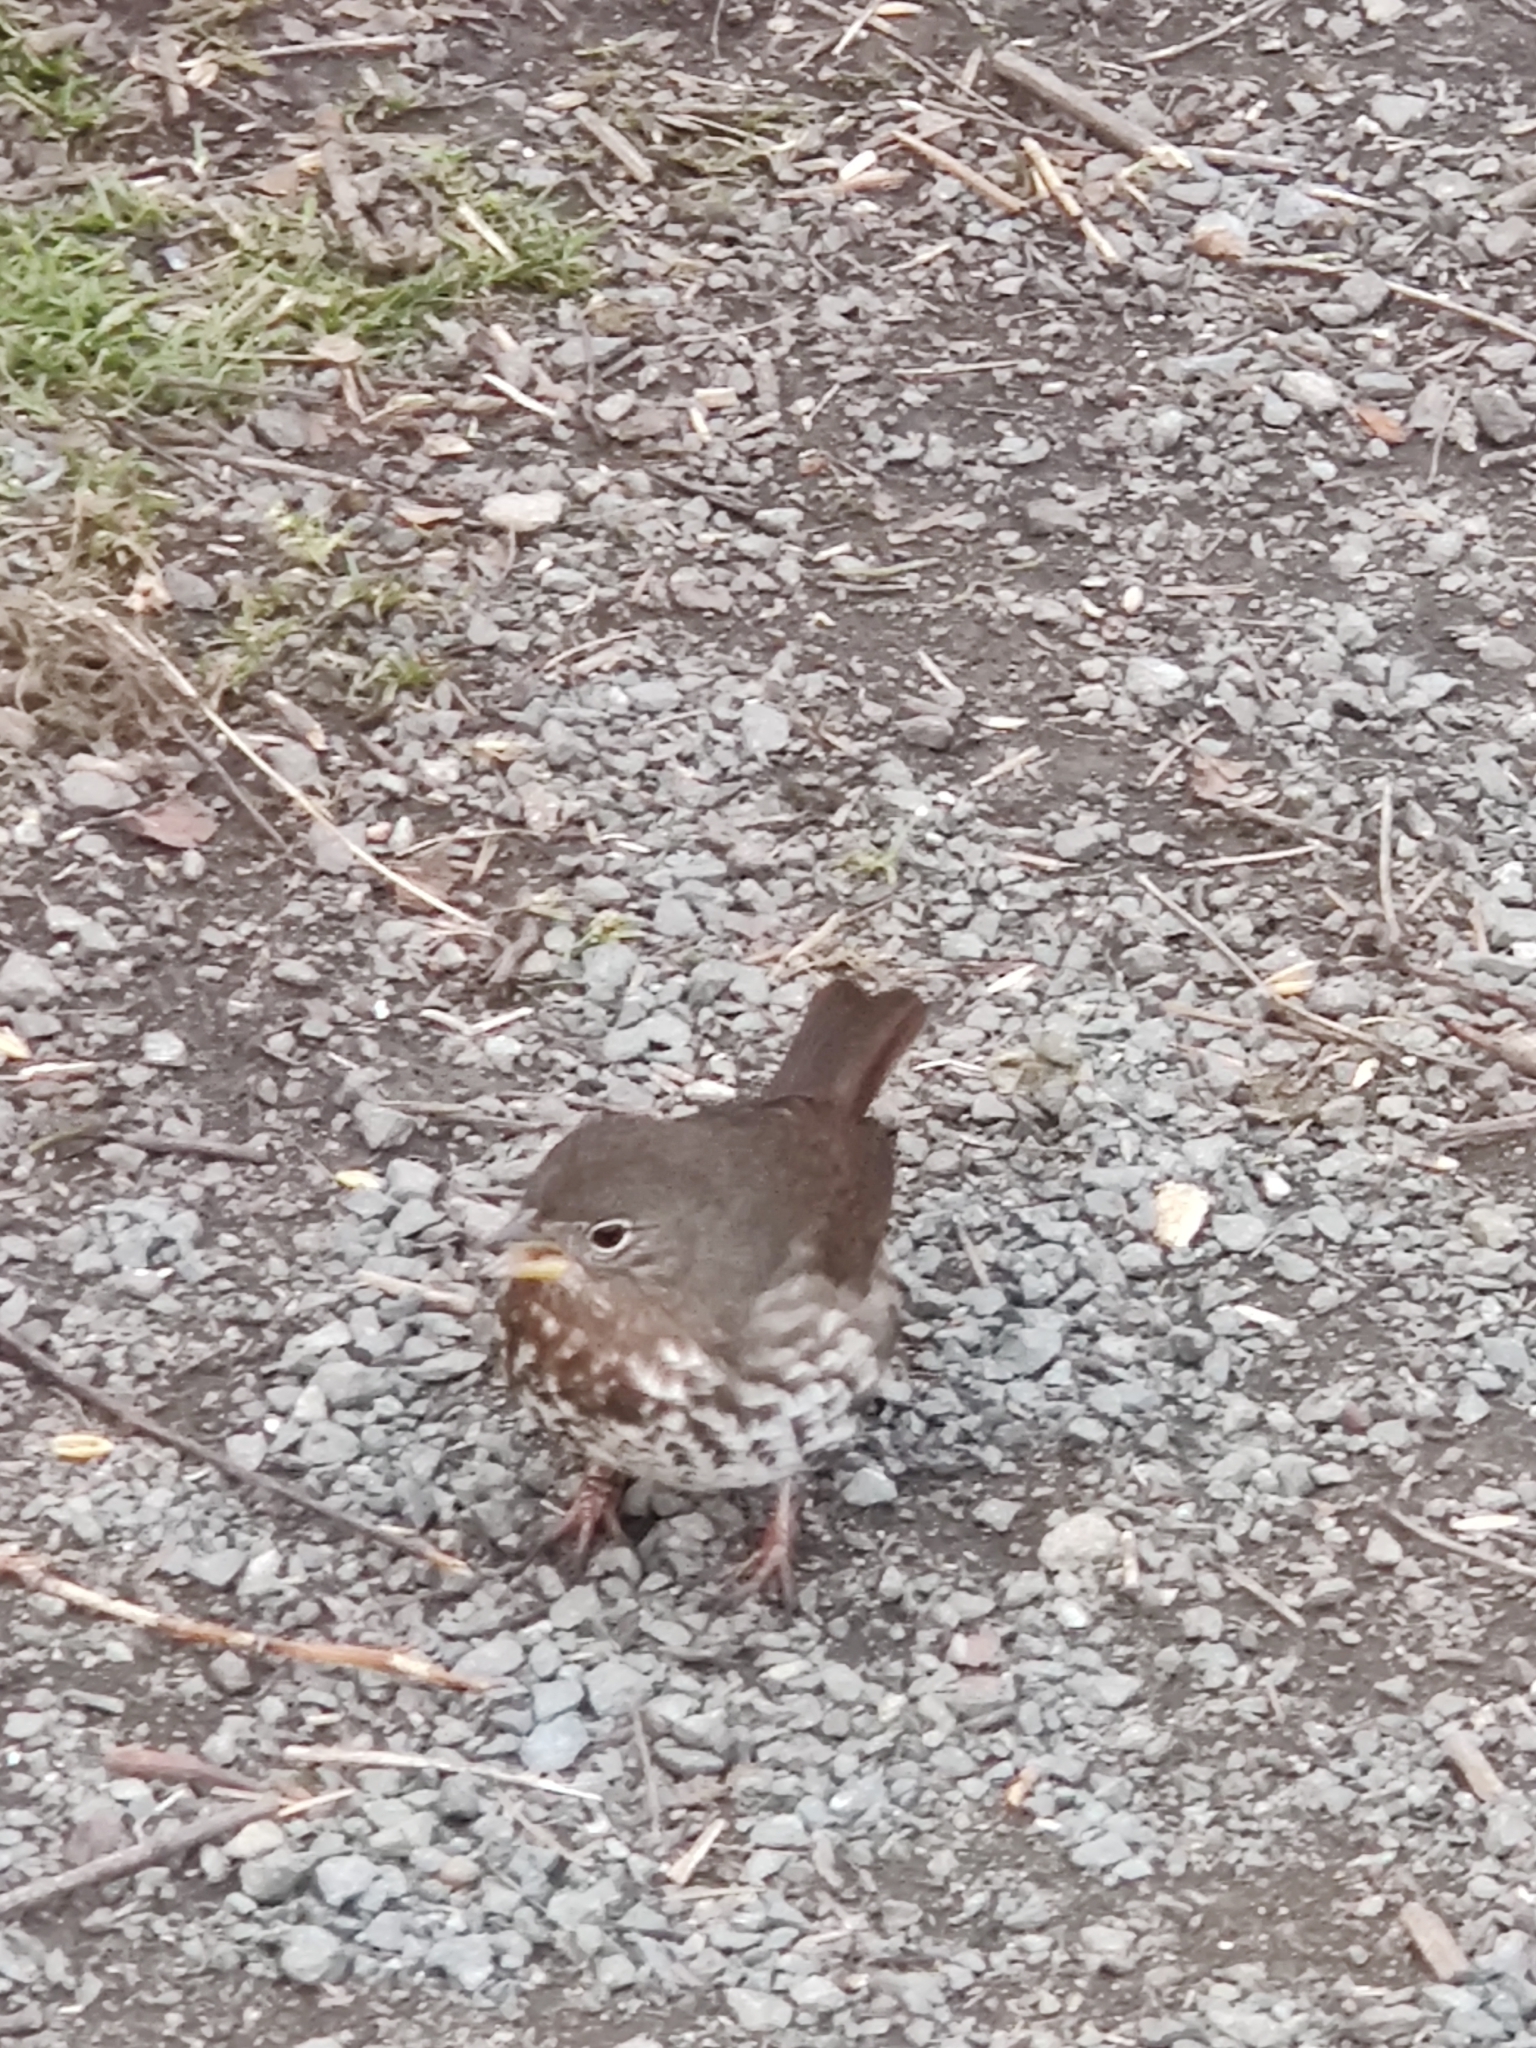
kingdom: Animalia
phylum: Chordata
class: Aves
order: Passeriformes
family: Passerellidae
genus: Passerella
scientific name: Passerella iliaca
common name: Fox sparrow
